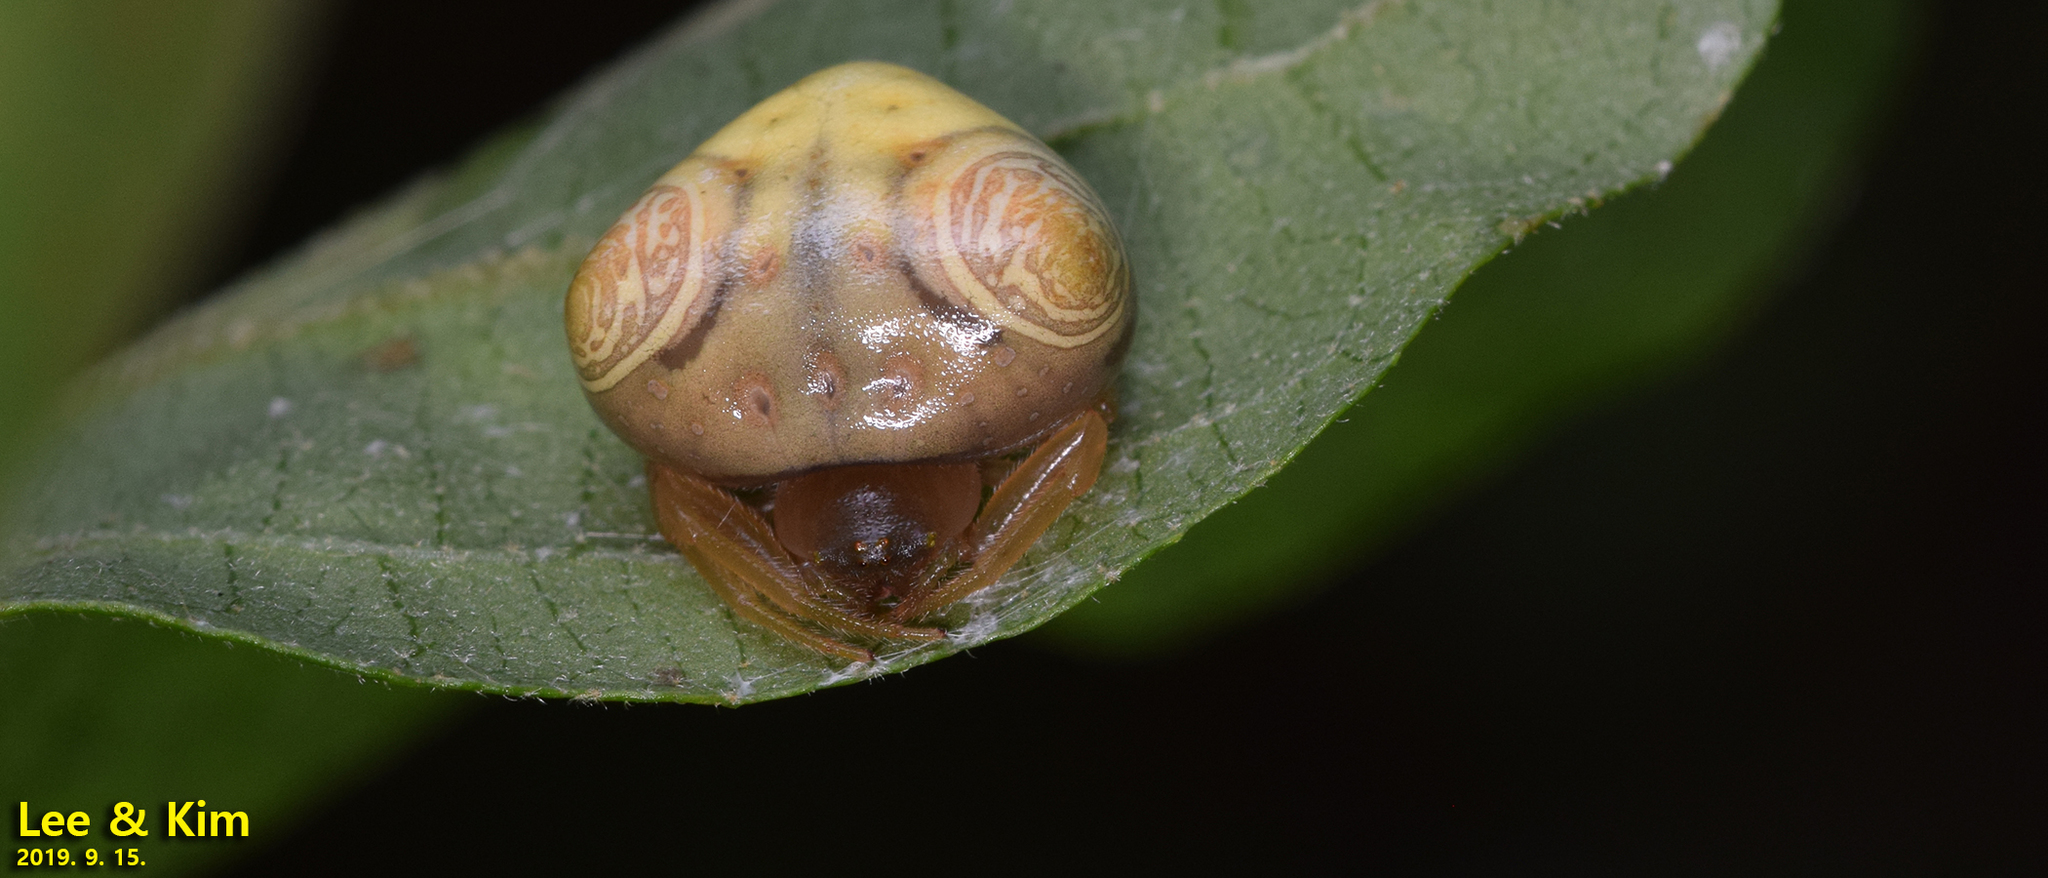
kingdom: Animalia
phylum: Arthropoda
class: Arachnida
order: Araneae
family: Araneidae
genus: Cyrtarachne
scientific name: Cyrtarachne inaequalis
